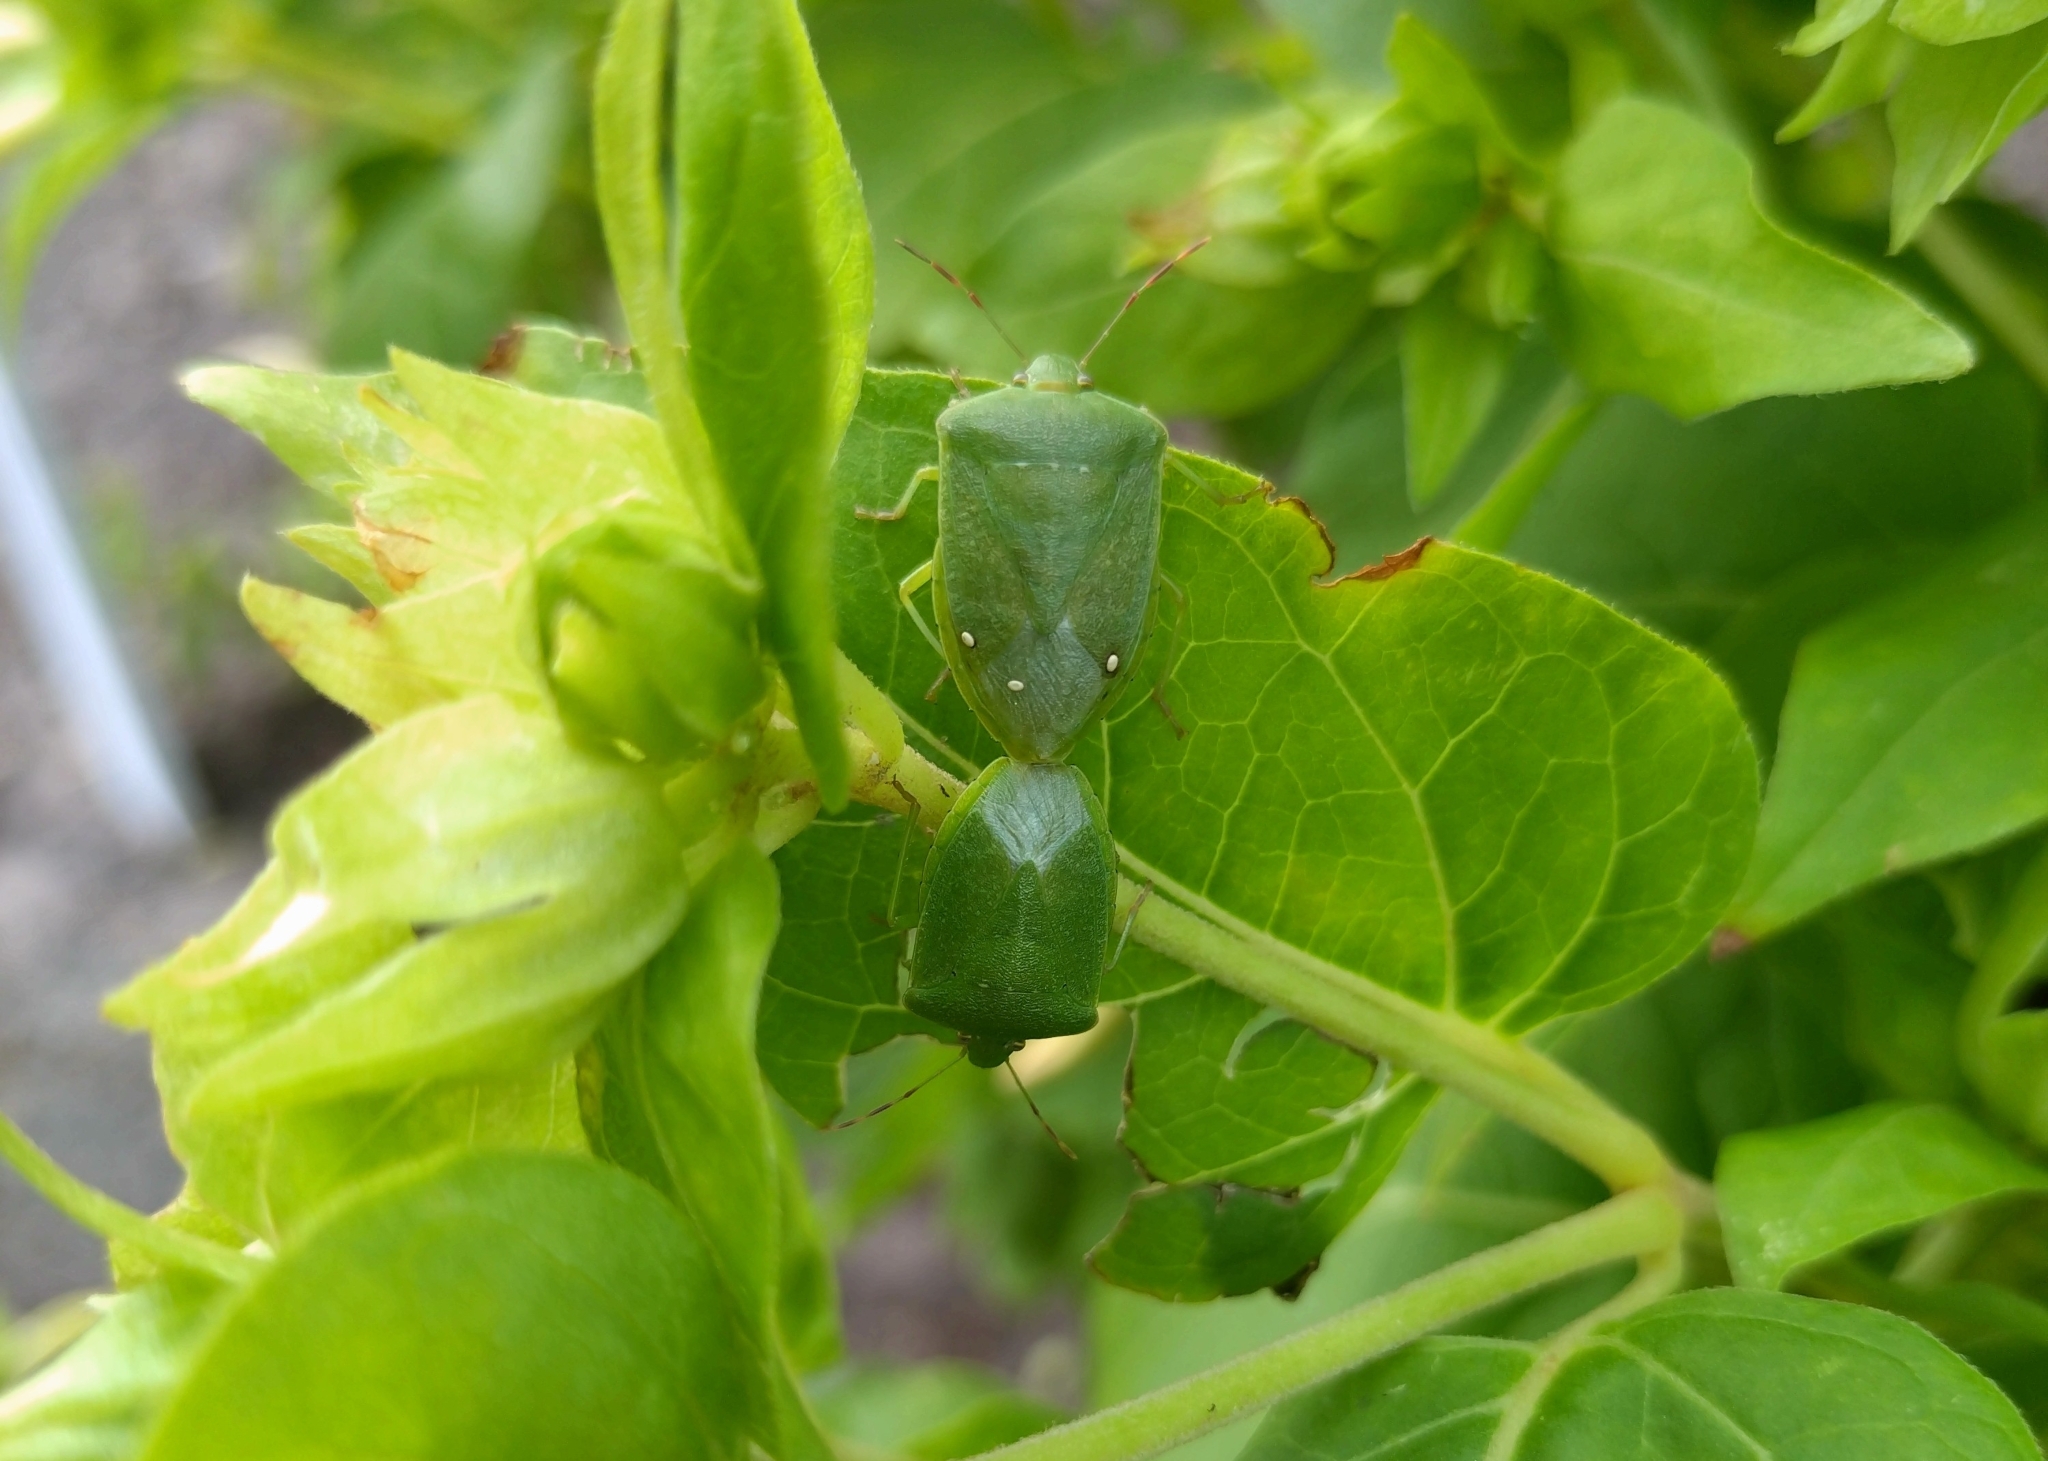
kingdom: Animalia
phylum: Arthropoda
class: Insecta
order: Hemiptera
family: Pentatomidae
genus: Nezara
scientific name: Nezara viridula
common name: Southern green stink bug
